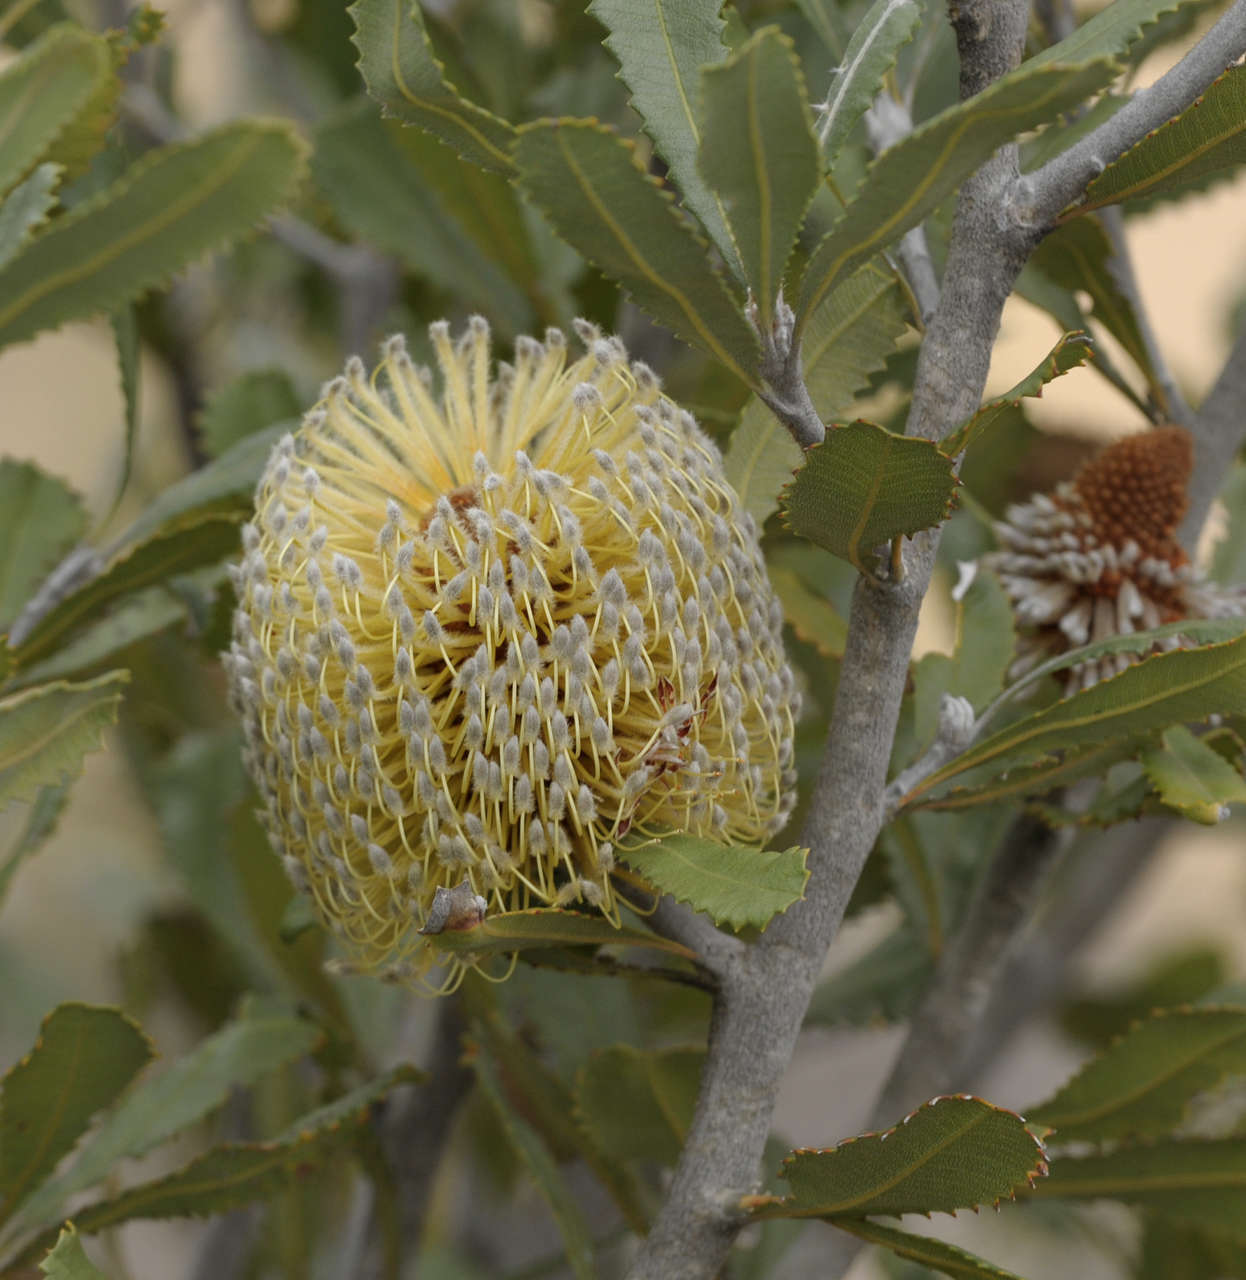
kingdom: Plantae
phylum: Tracheophyta
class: Magnoliopsida
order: Proteales
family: Proteaceae
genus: Banksia
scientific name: Banksia ornata
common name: Desert banksia
